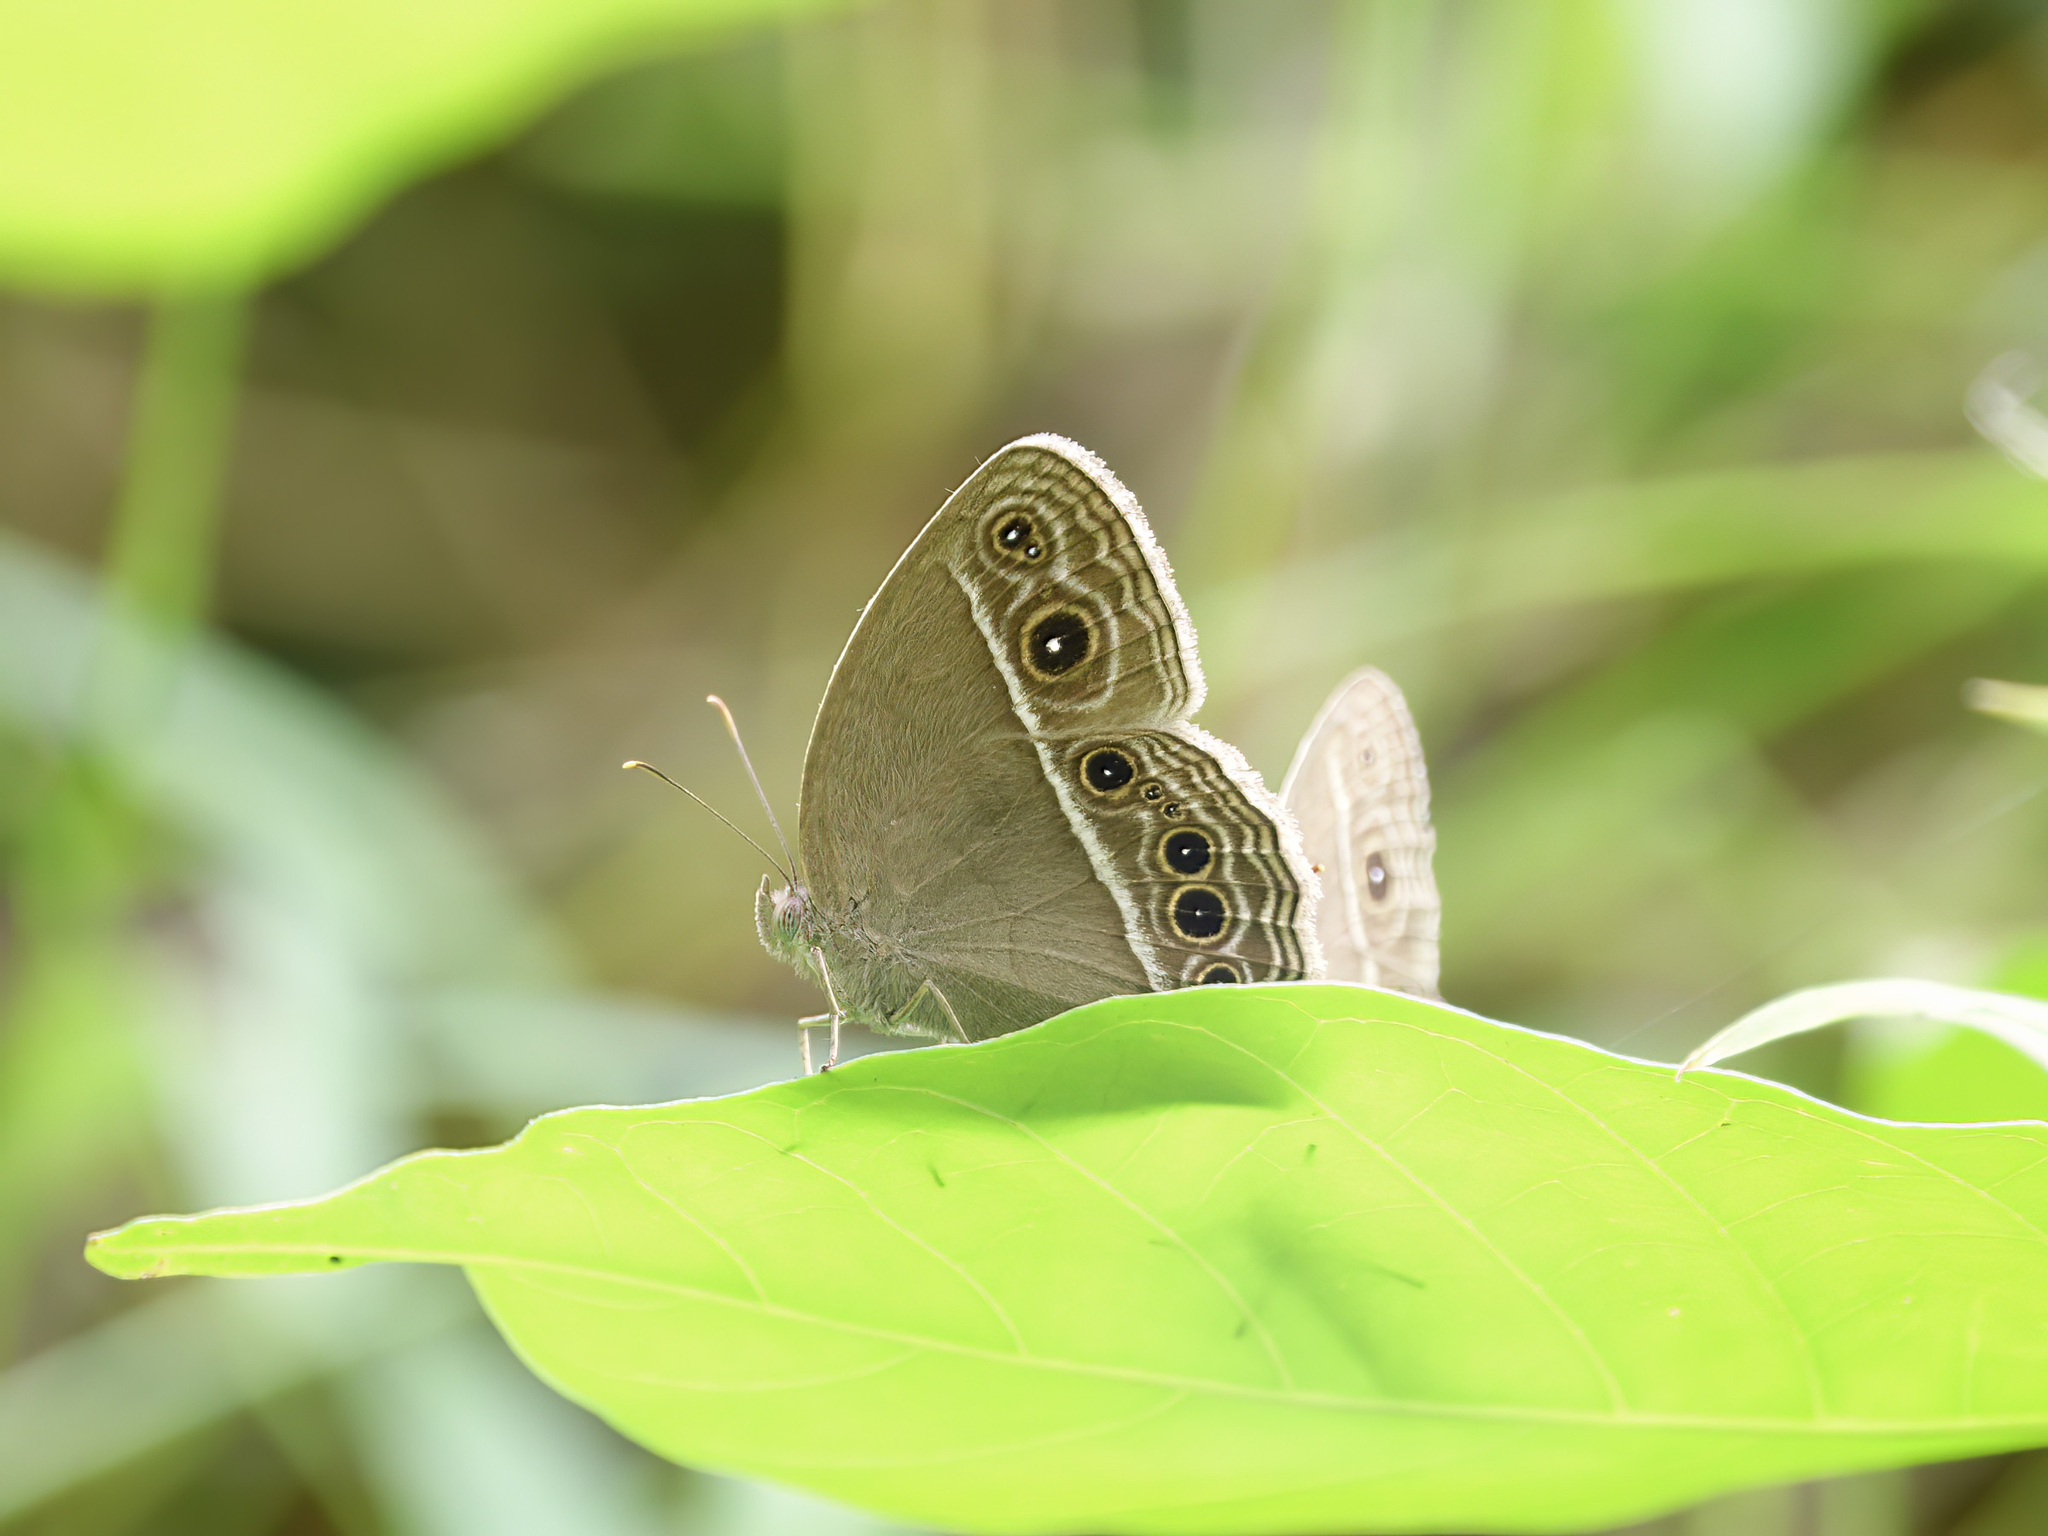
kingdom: Animalia
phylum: Arthropoda
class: Insecta
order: Lepidoptera
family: Nymphalidae
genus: Mycalesis
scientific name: Mycalesis mineus
